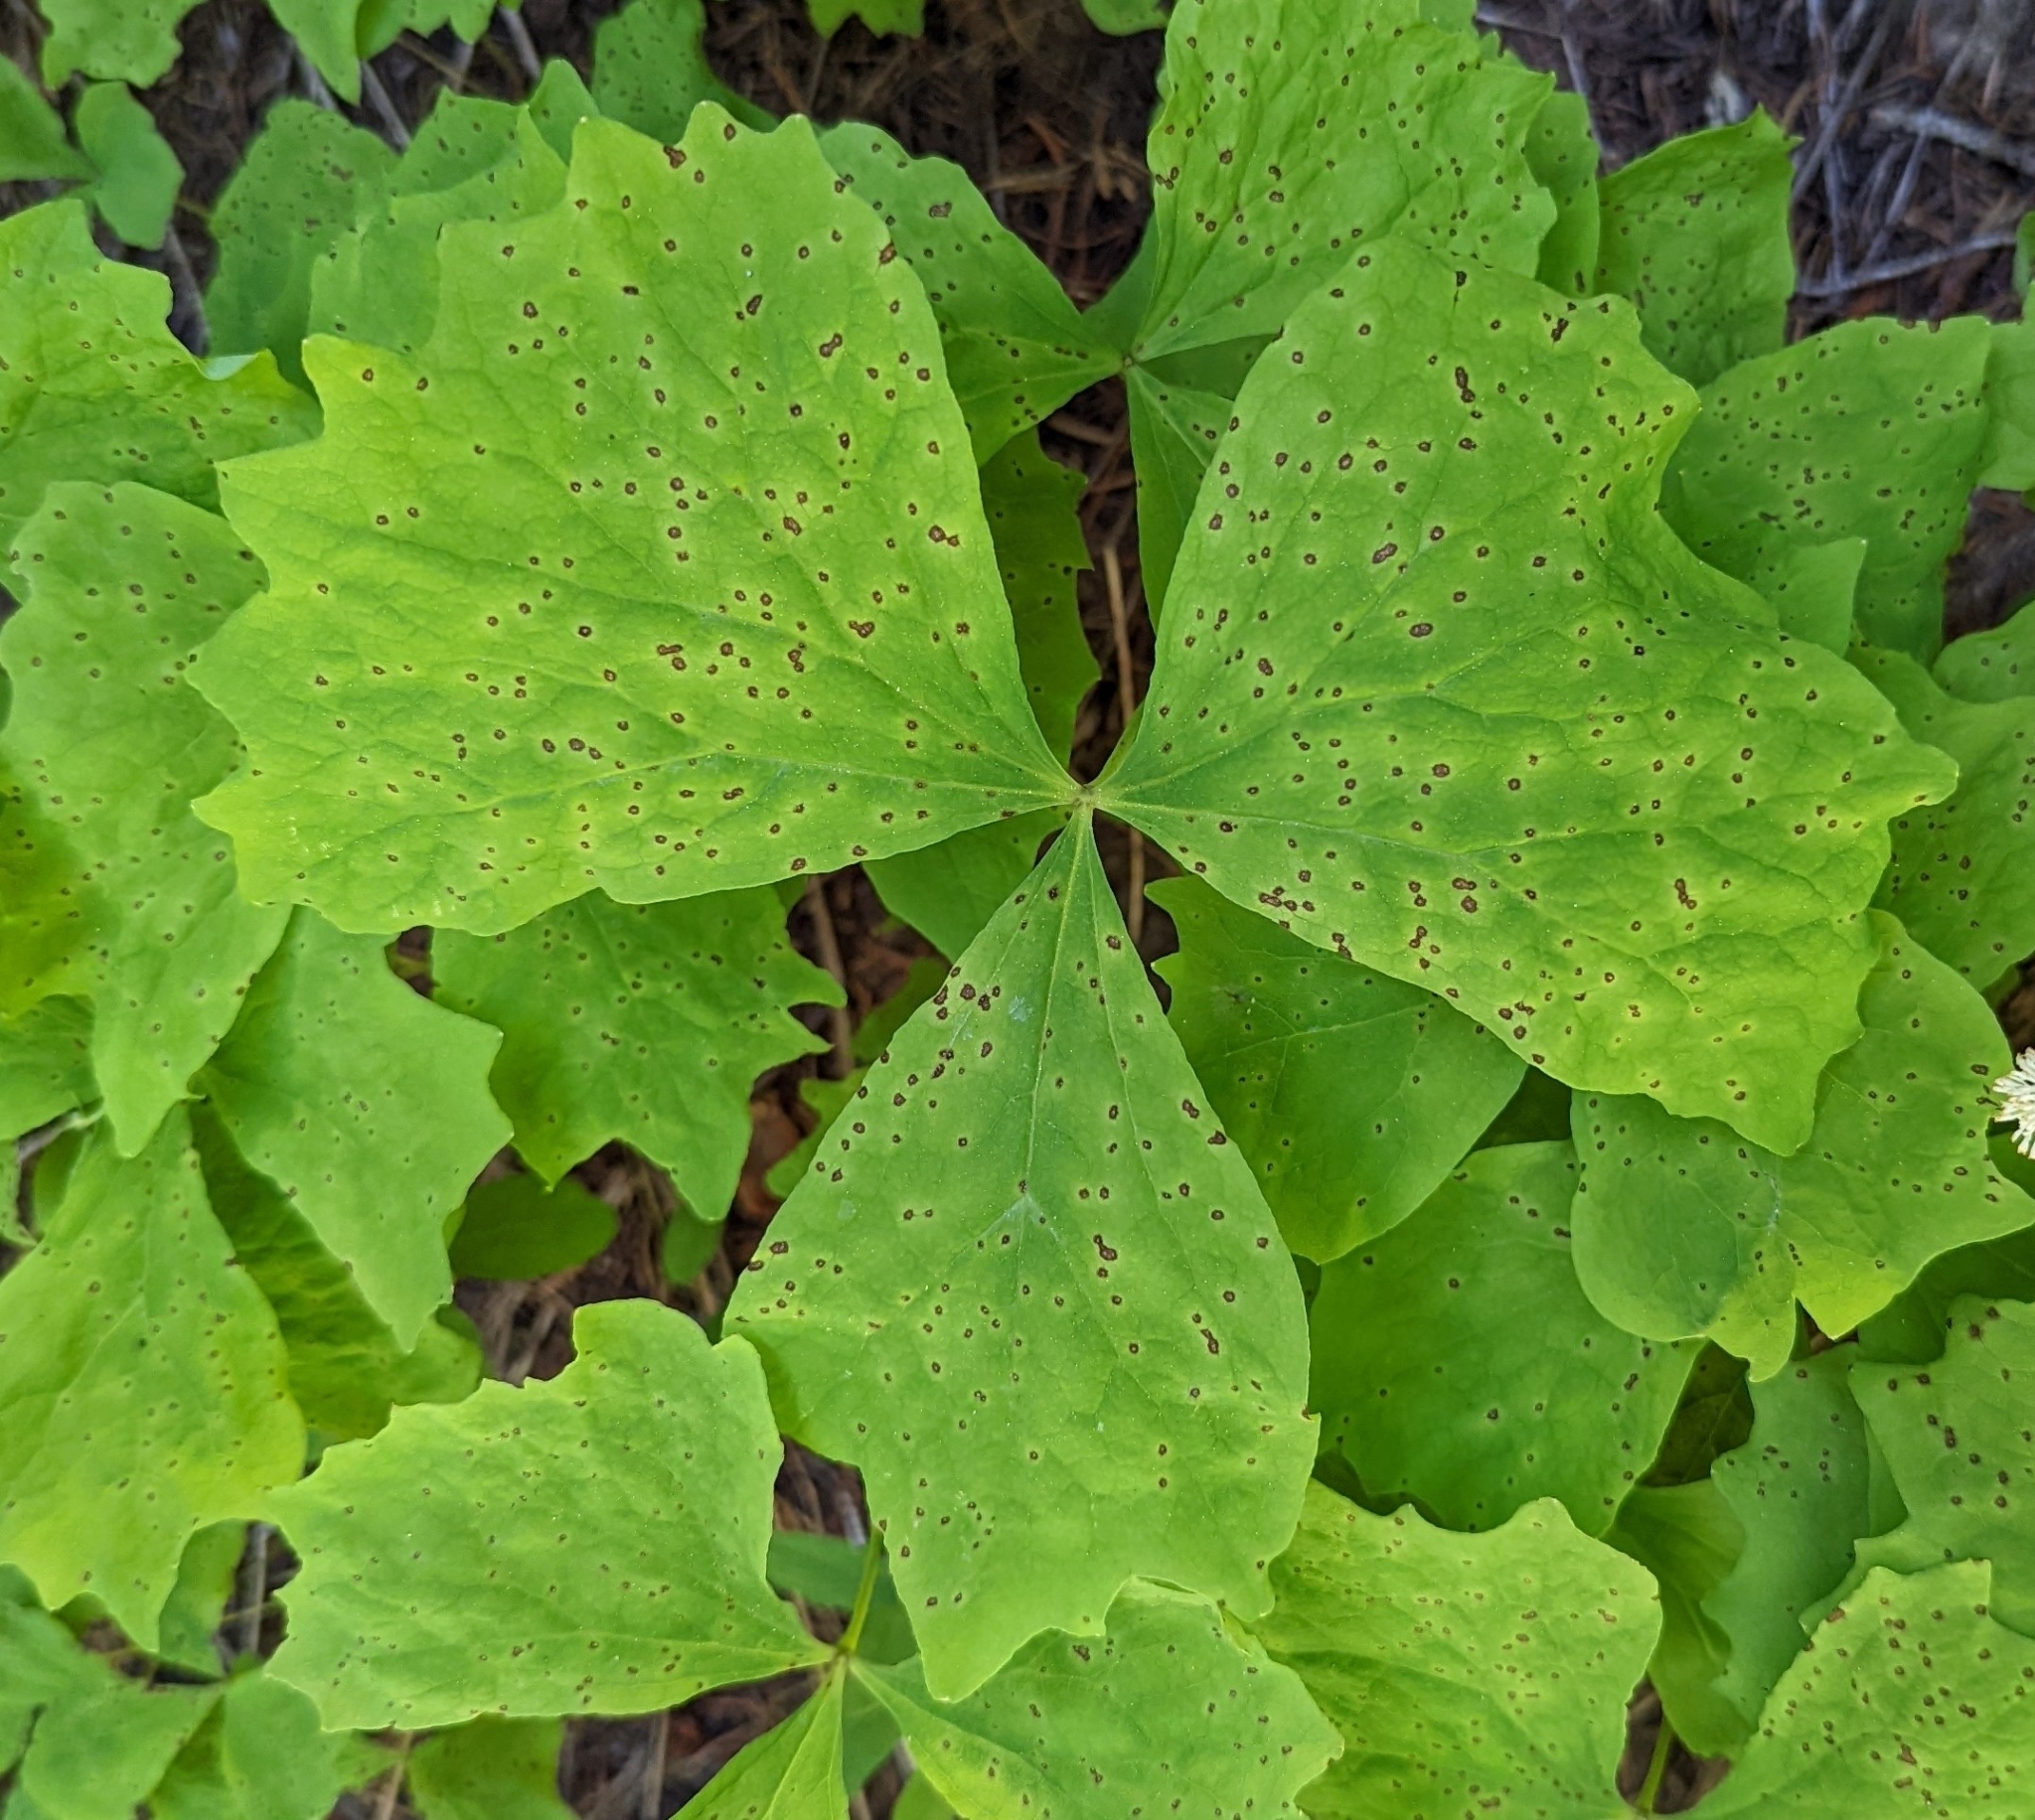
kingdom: Plantae
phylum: Tracheophyta
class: Magnoliopsida
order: Ranunculales
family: Berberidaceae
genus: Achlys
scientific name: Achlys triphylla
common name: Vanilla-leaf
